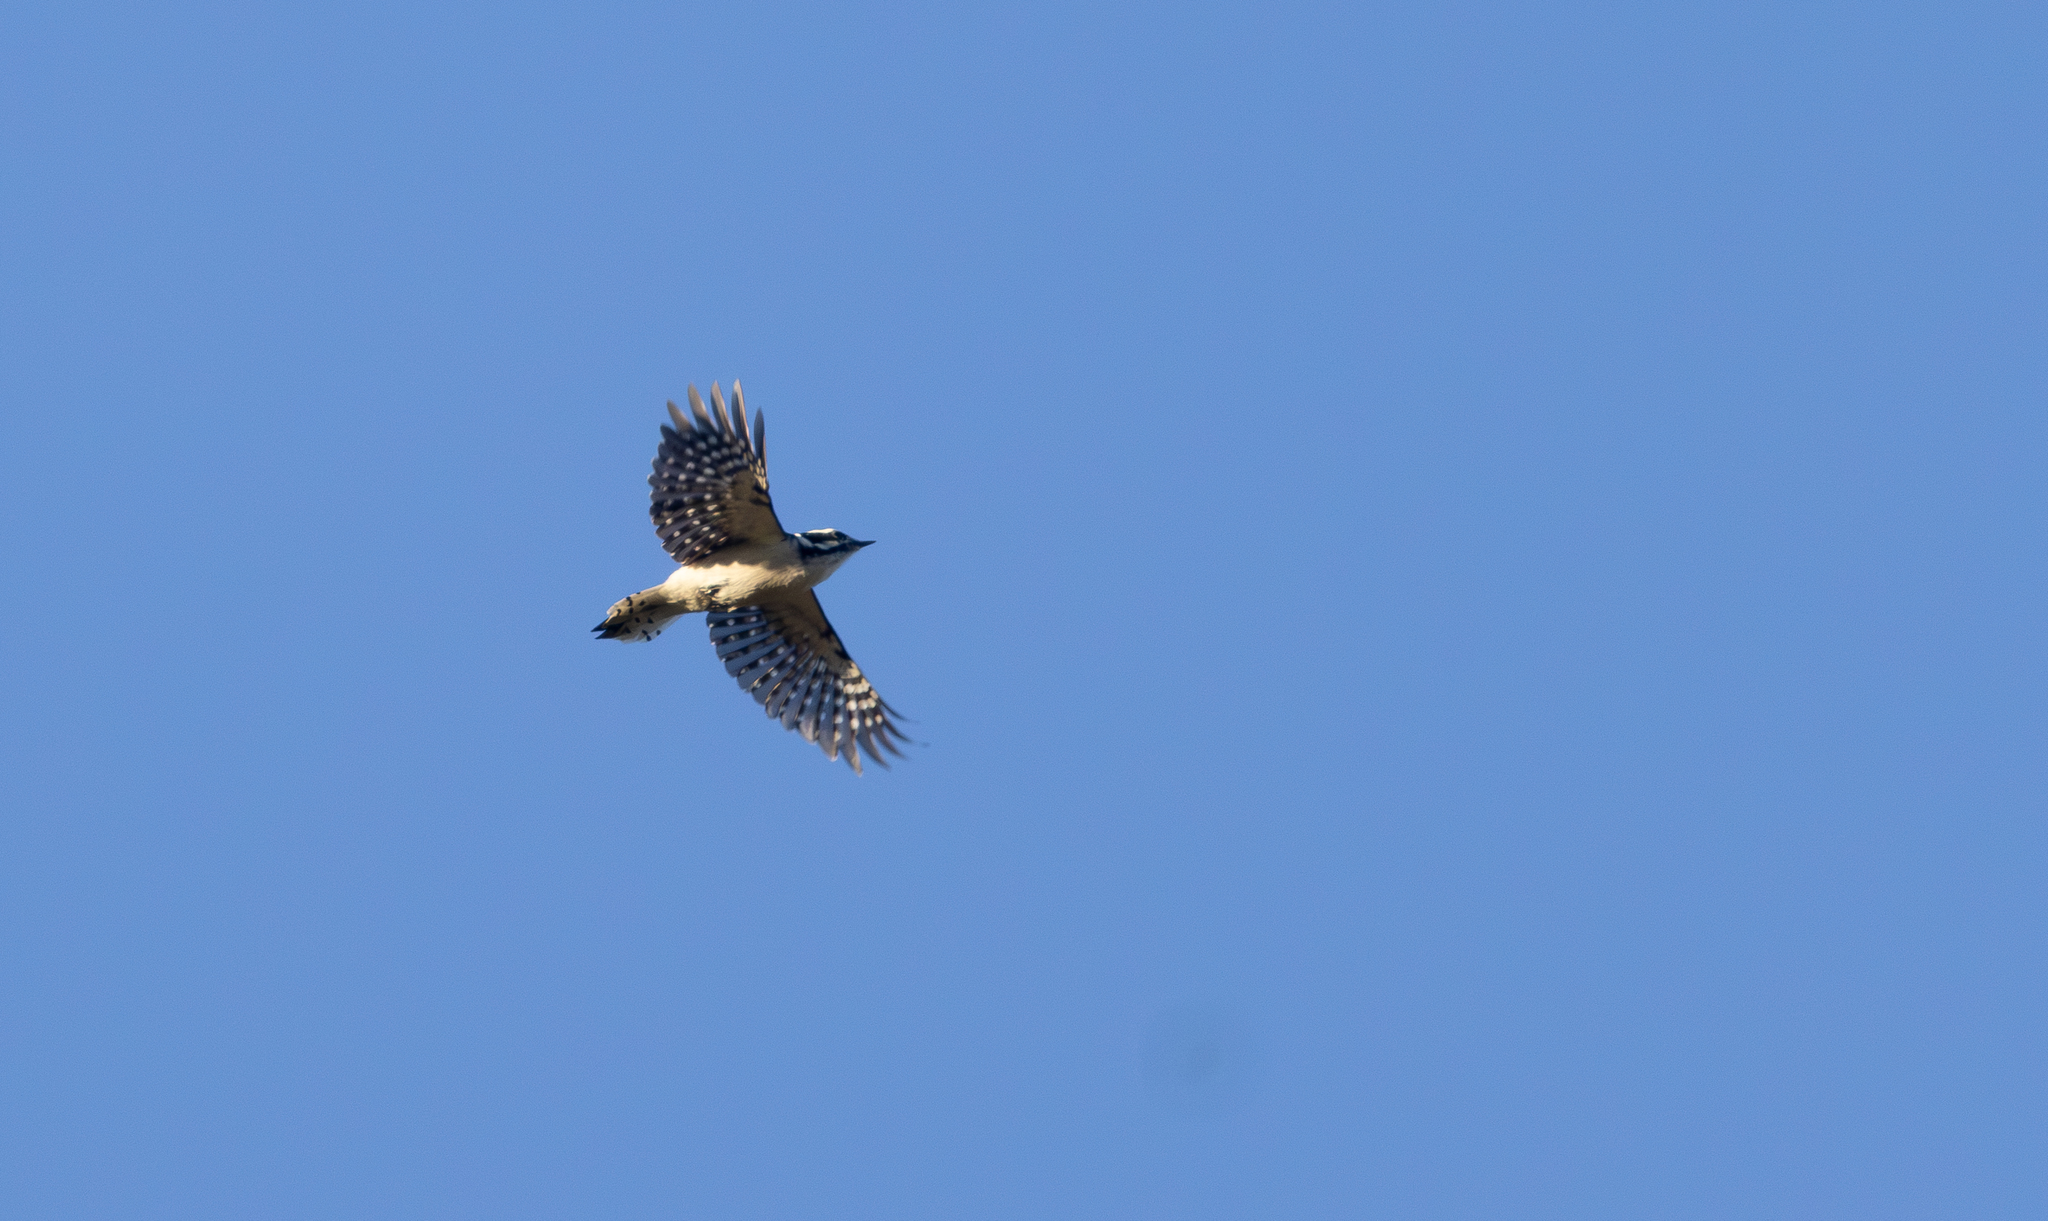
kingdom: Animalia
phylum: Chordata
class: Aves
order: Piciformes
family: Picidae
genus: Dryobates
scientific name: Dryobates pubescens
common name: Downy woodpecker
